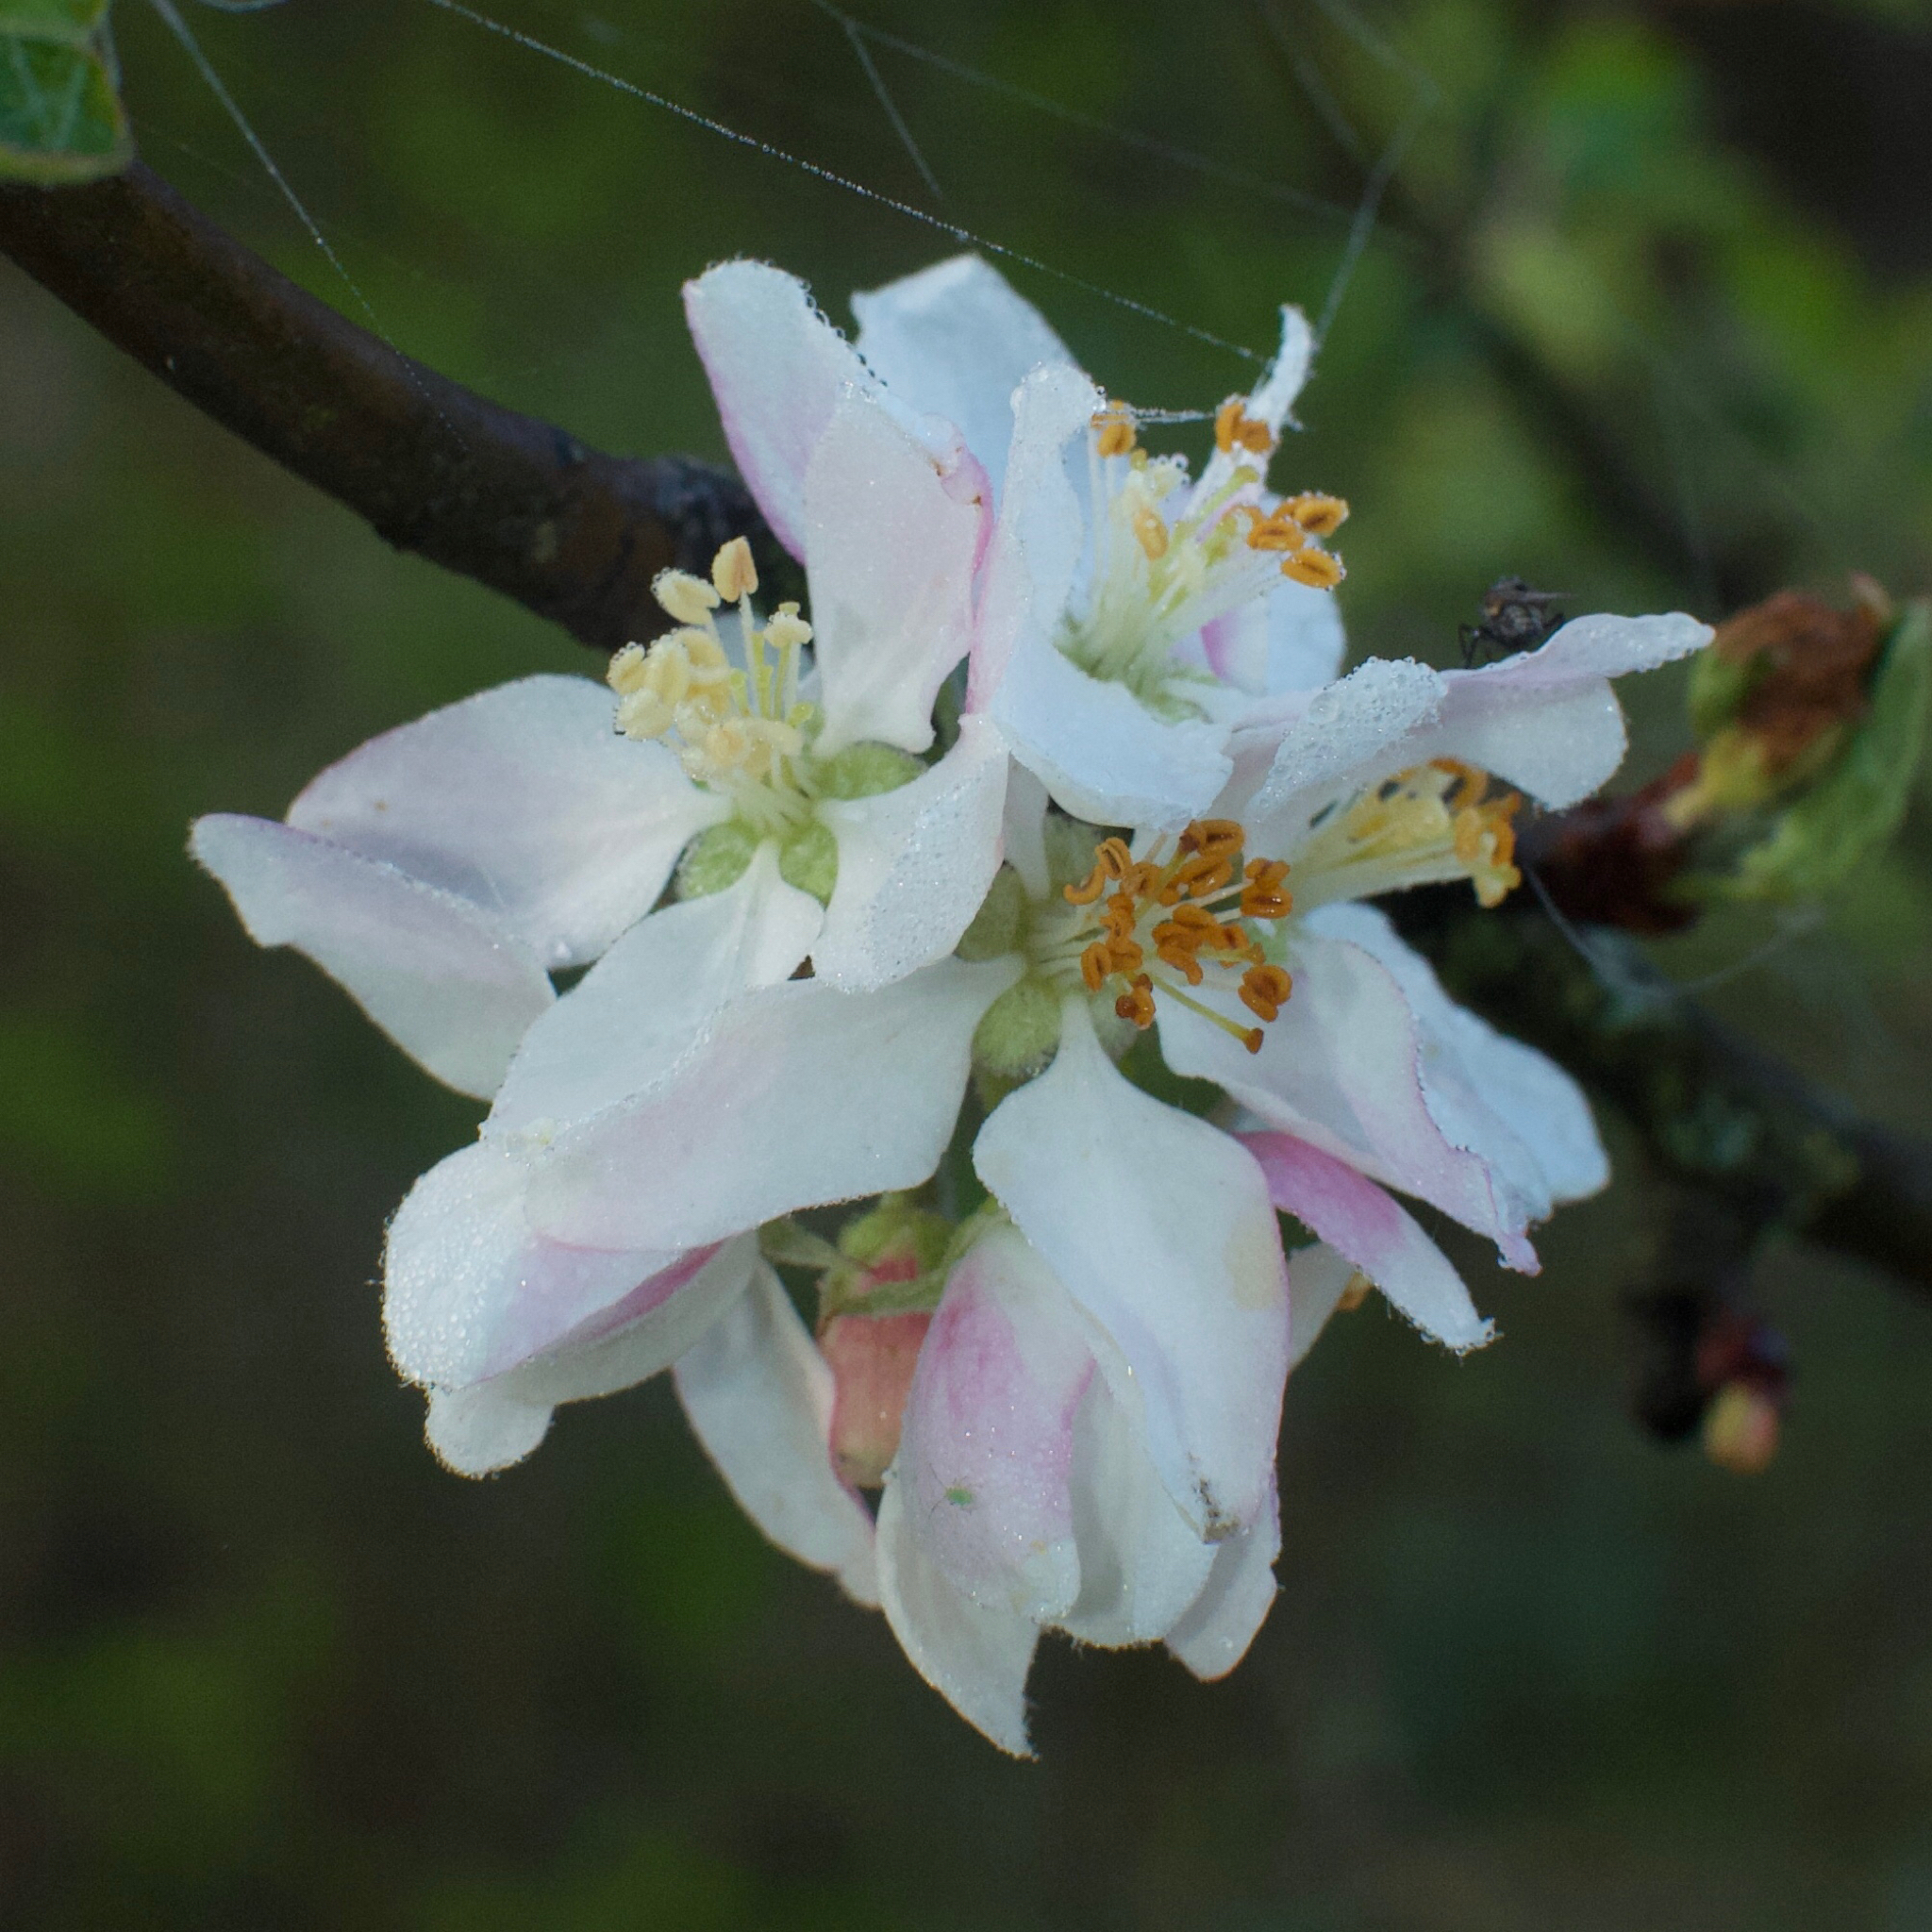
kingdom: Plantae
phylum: Tracheophyta
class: Magnoliopsida
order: Rosales
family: Rosaceae
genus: Malus
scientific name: Malus
